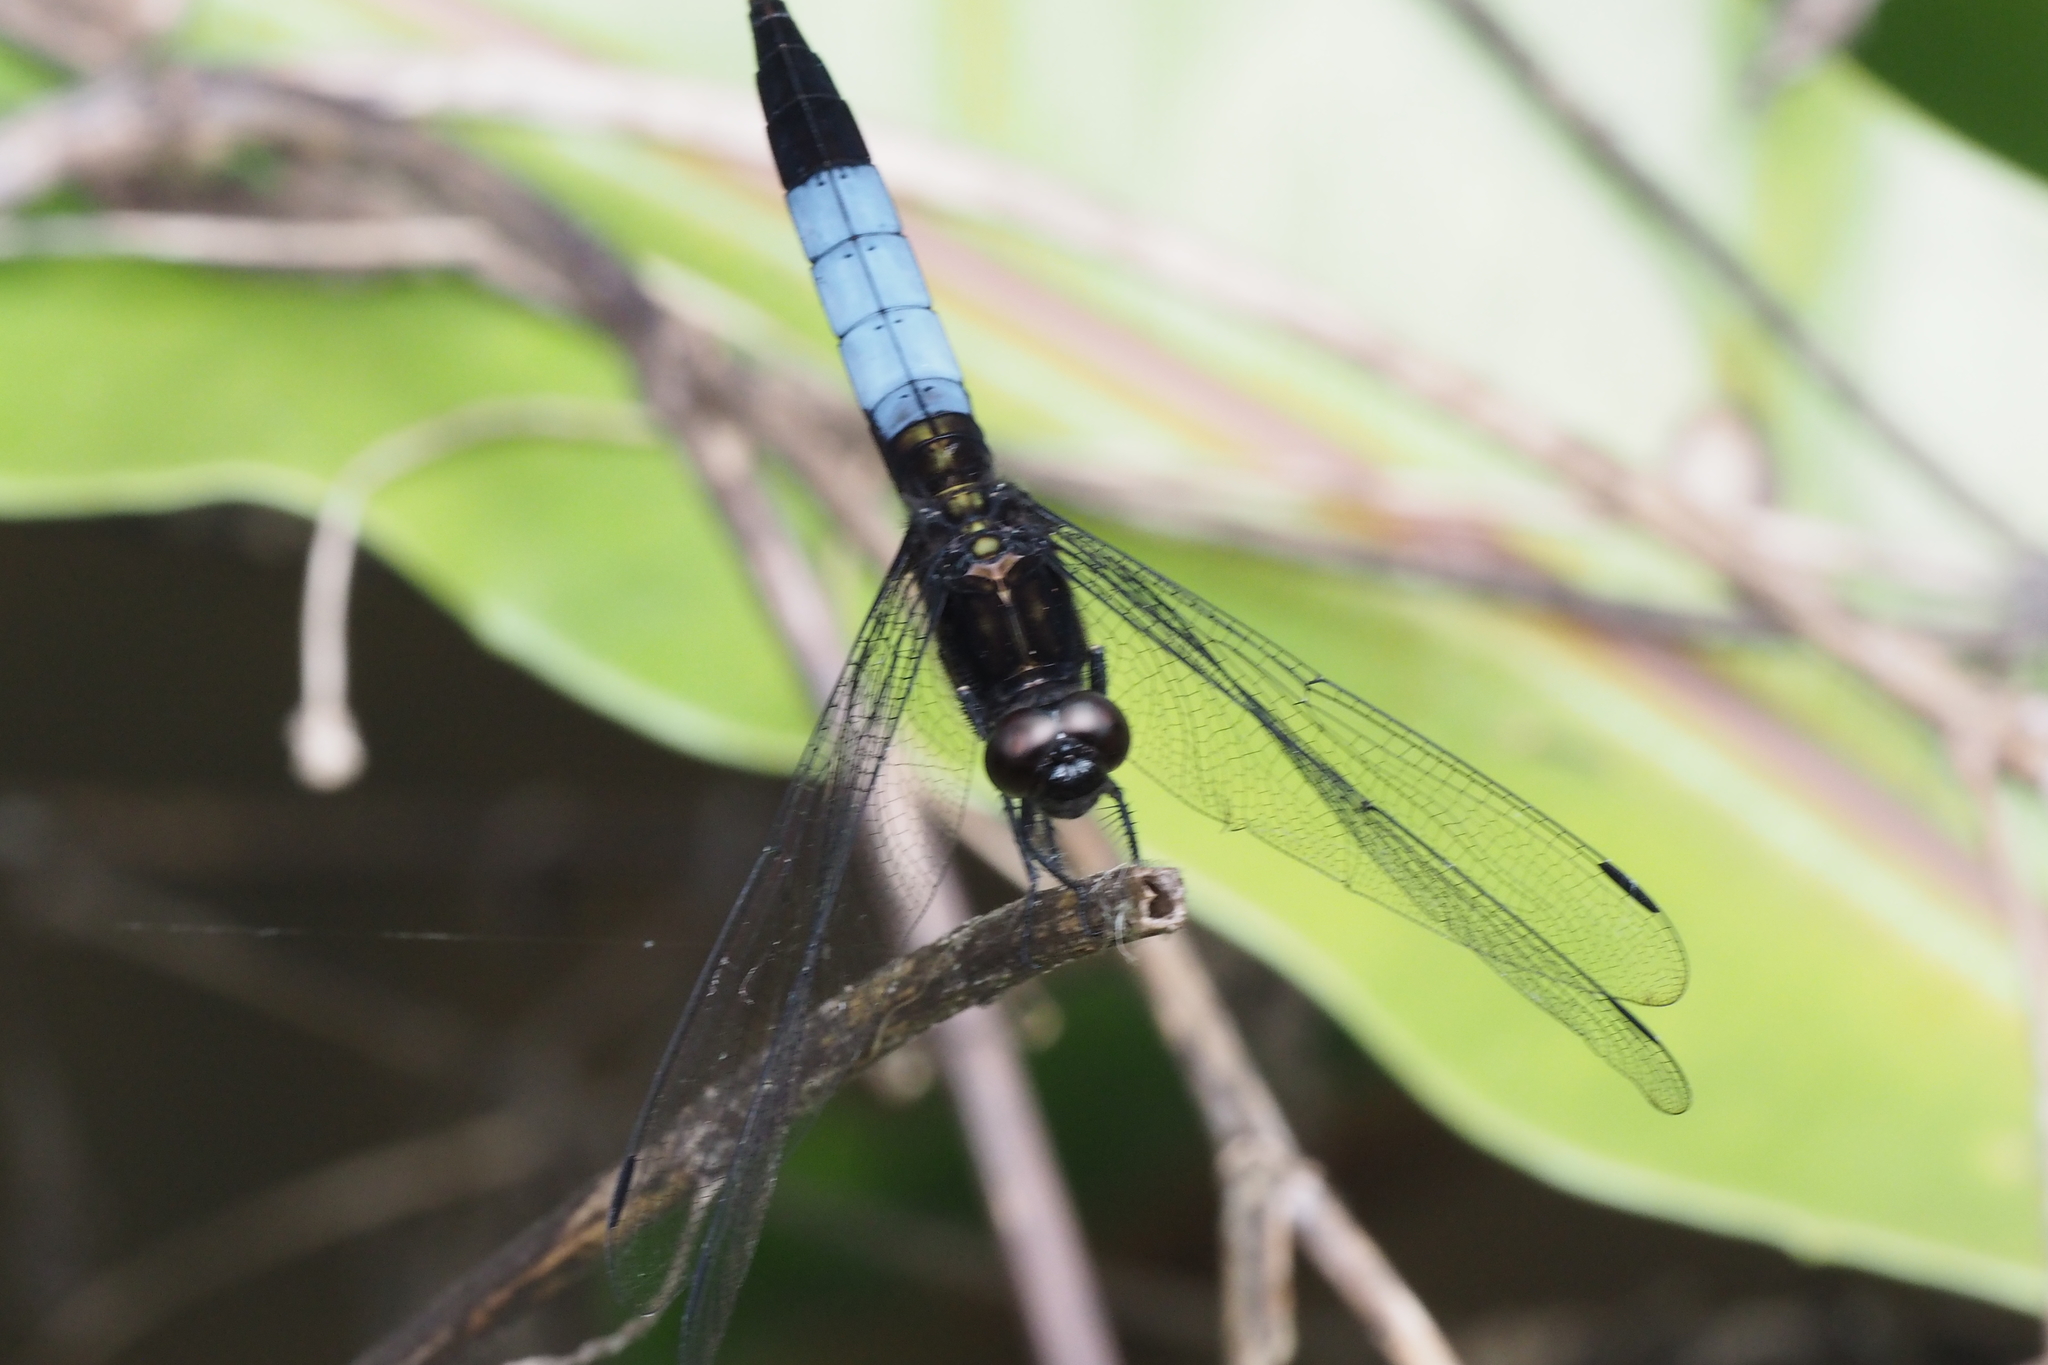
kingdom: Animalia
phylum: Arthropoda
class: Insecta
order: Odonata
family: Libellulidae
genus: Orthetrum
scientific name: Orthetrum triangulare
